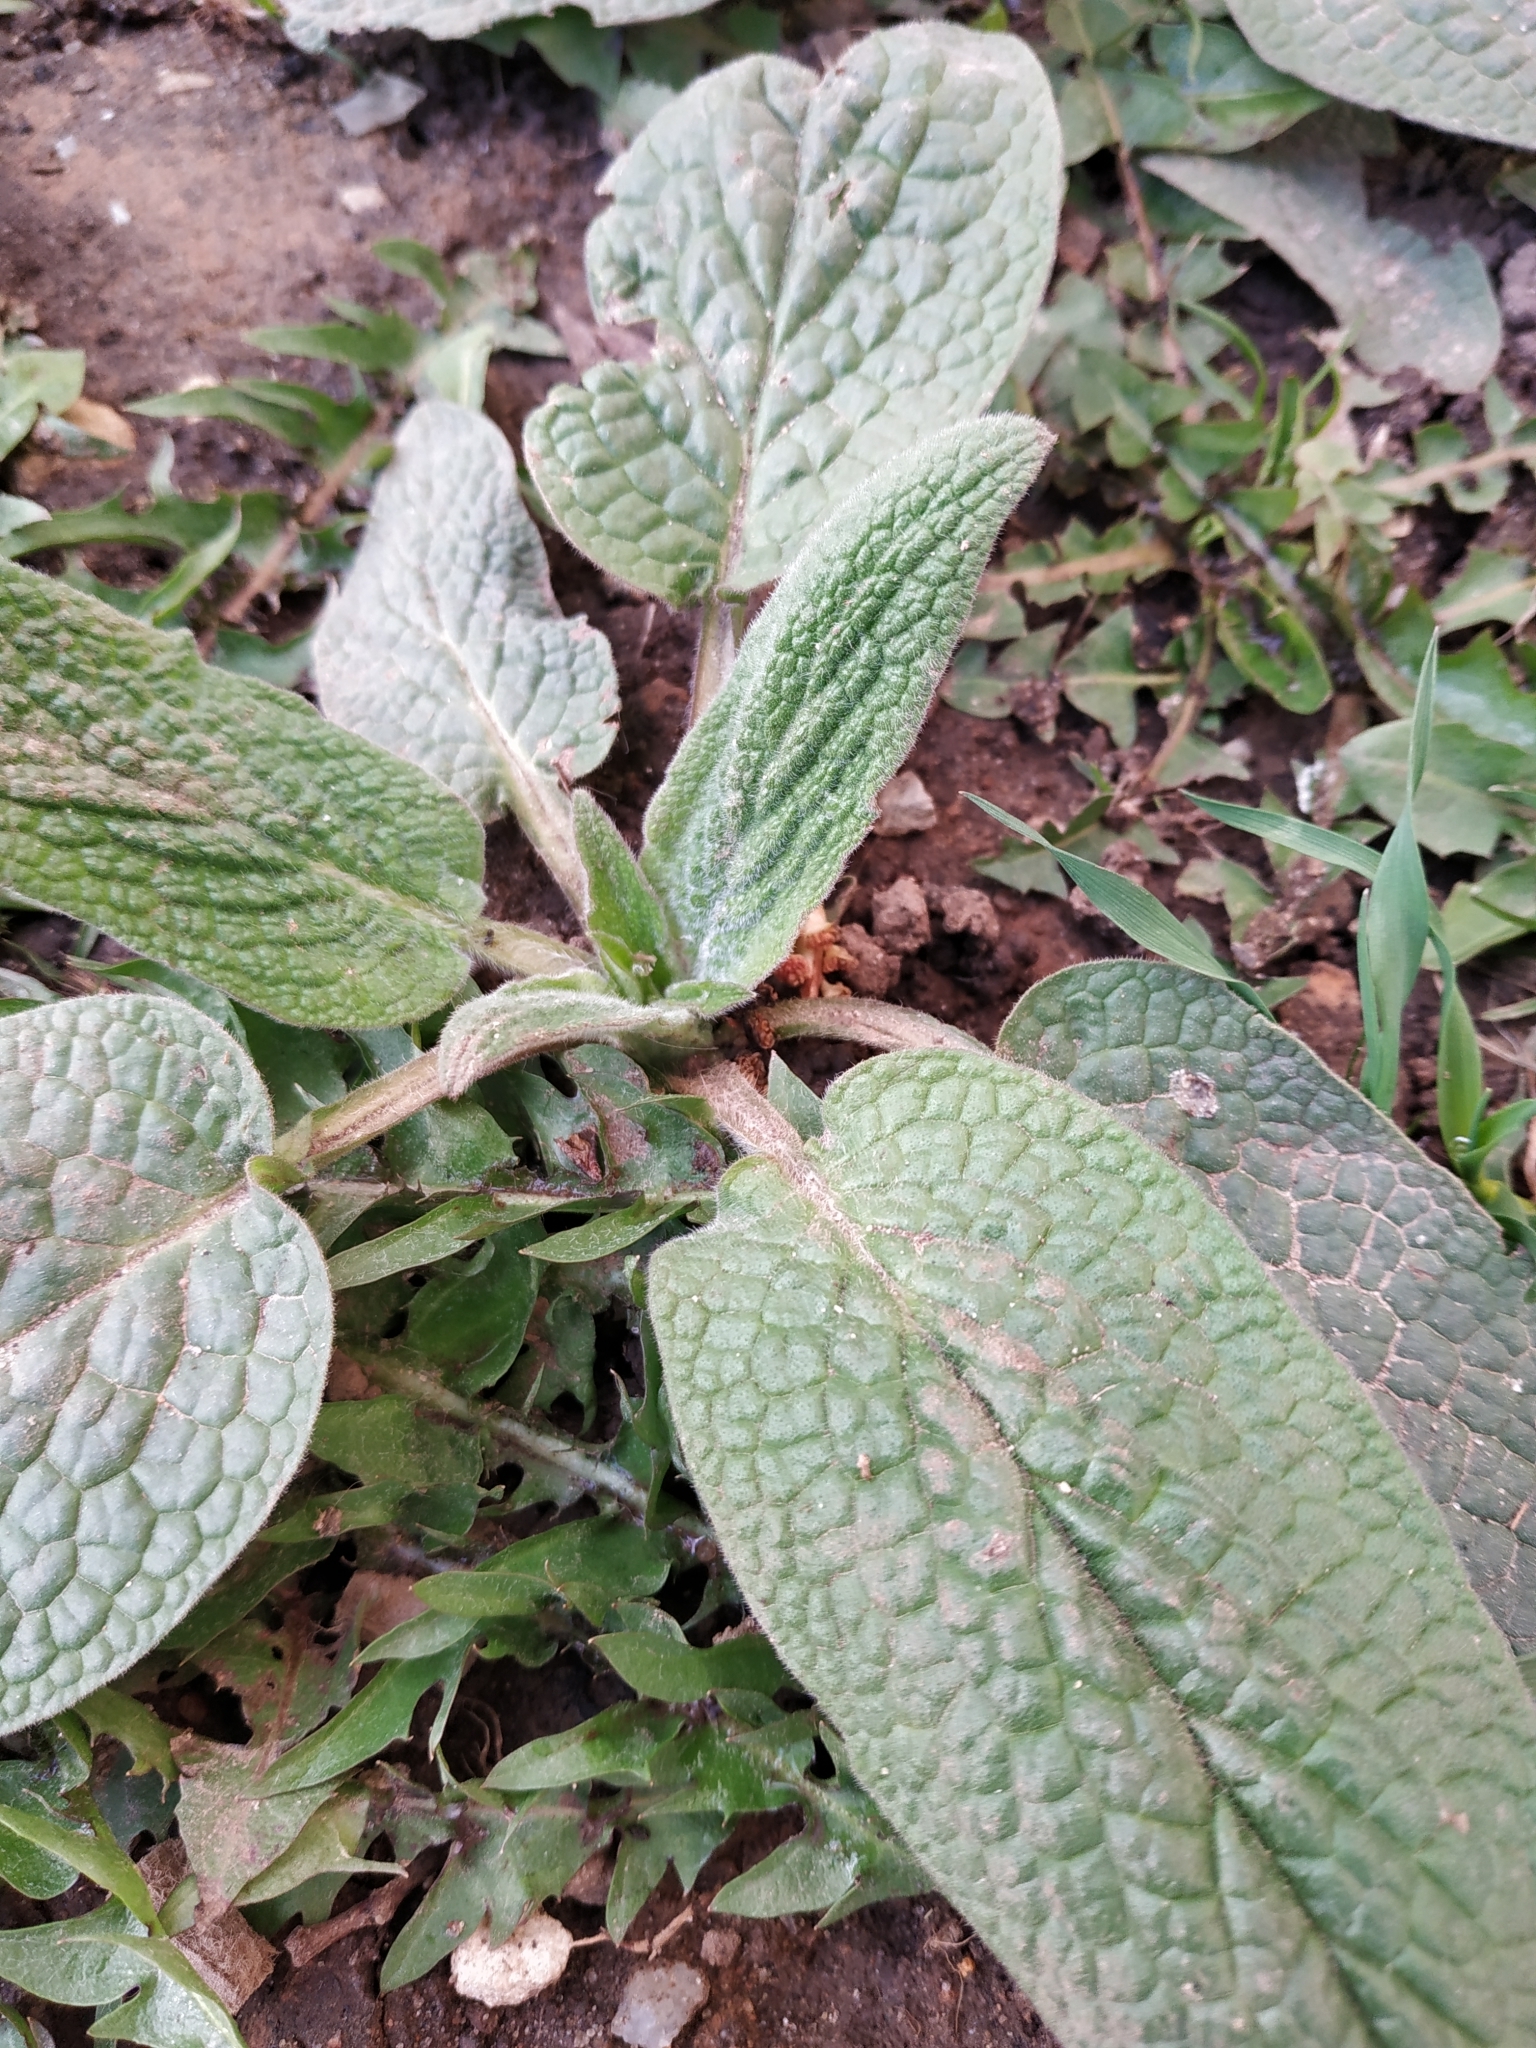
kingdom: Plantae
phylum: Tracheophyta
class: Magnoliopsida
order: Boraginales
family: Boraginaceae
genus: Symphytum
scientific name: Symphytum caucasicum
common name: Caucasian comfrey
